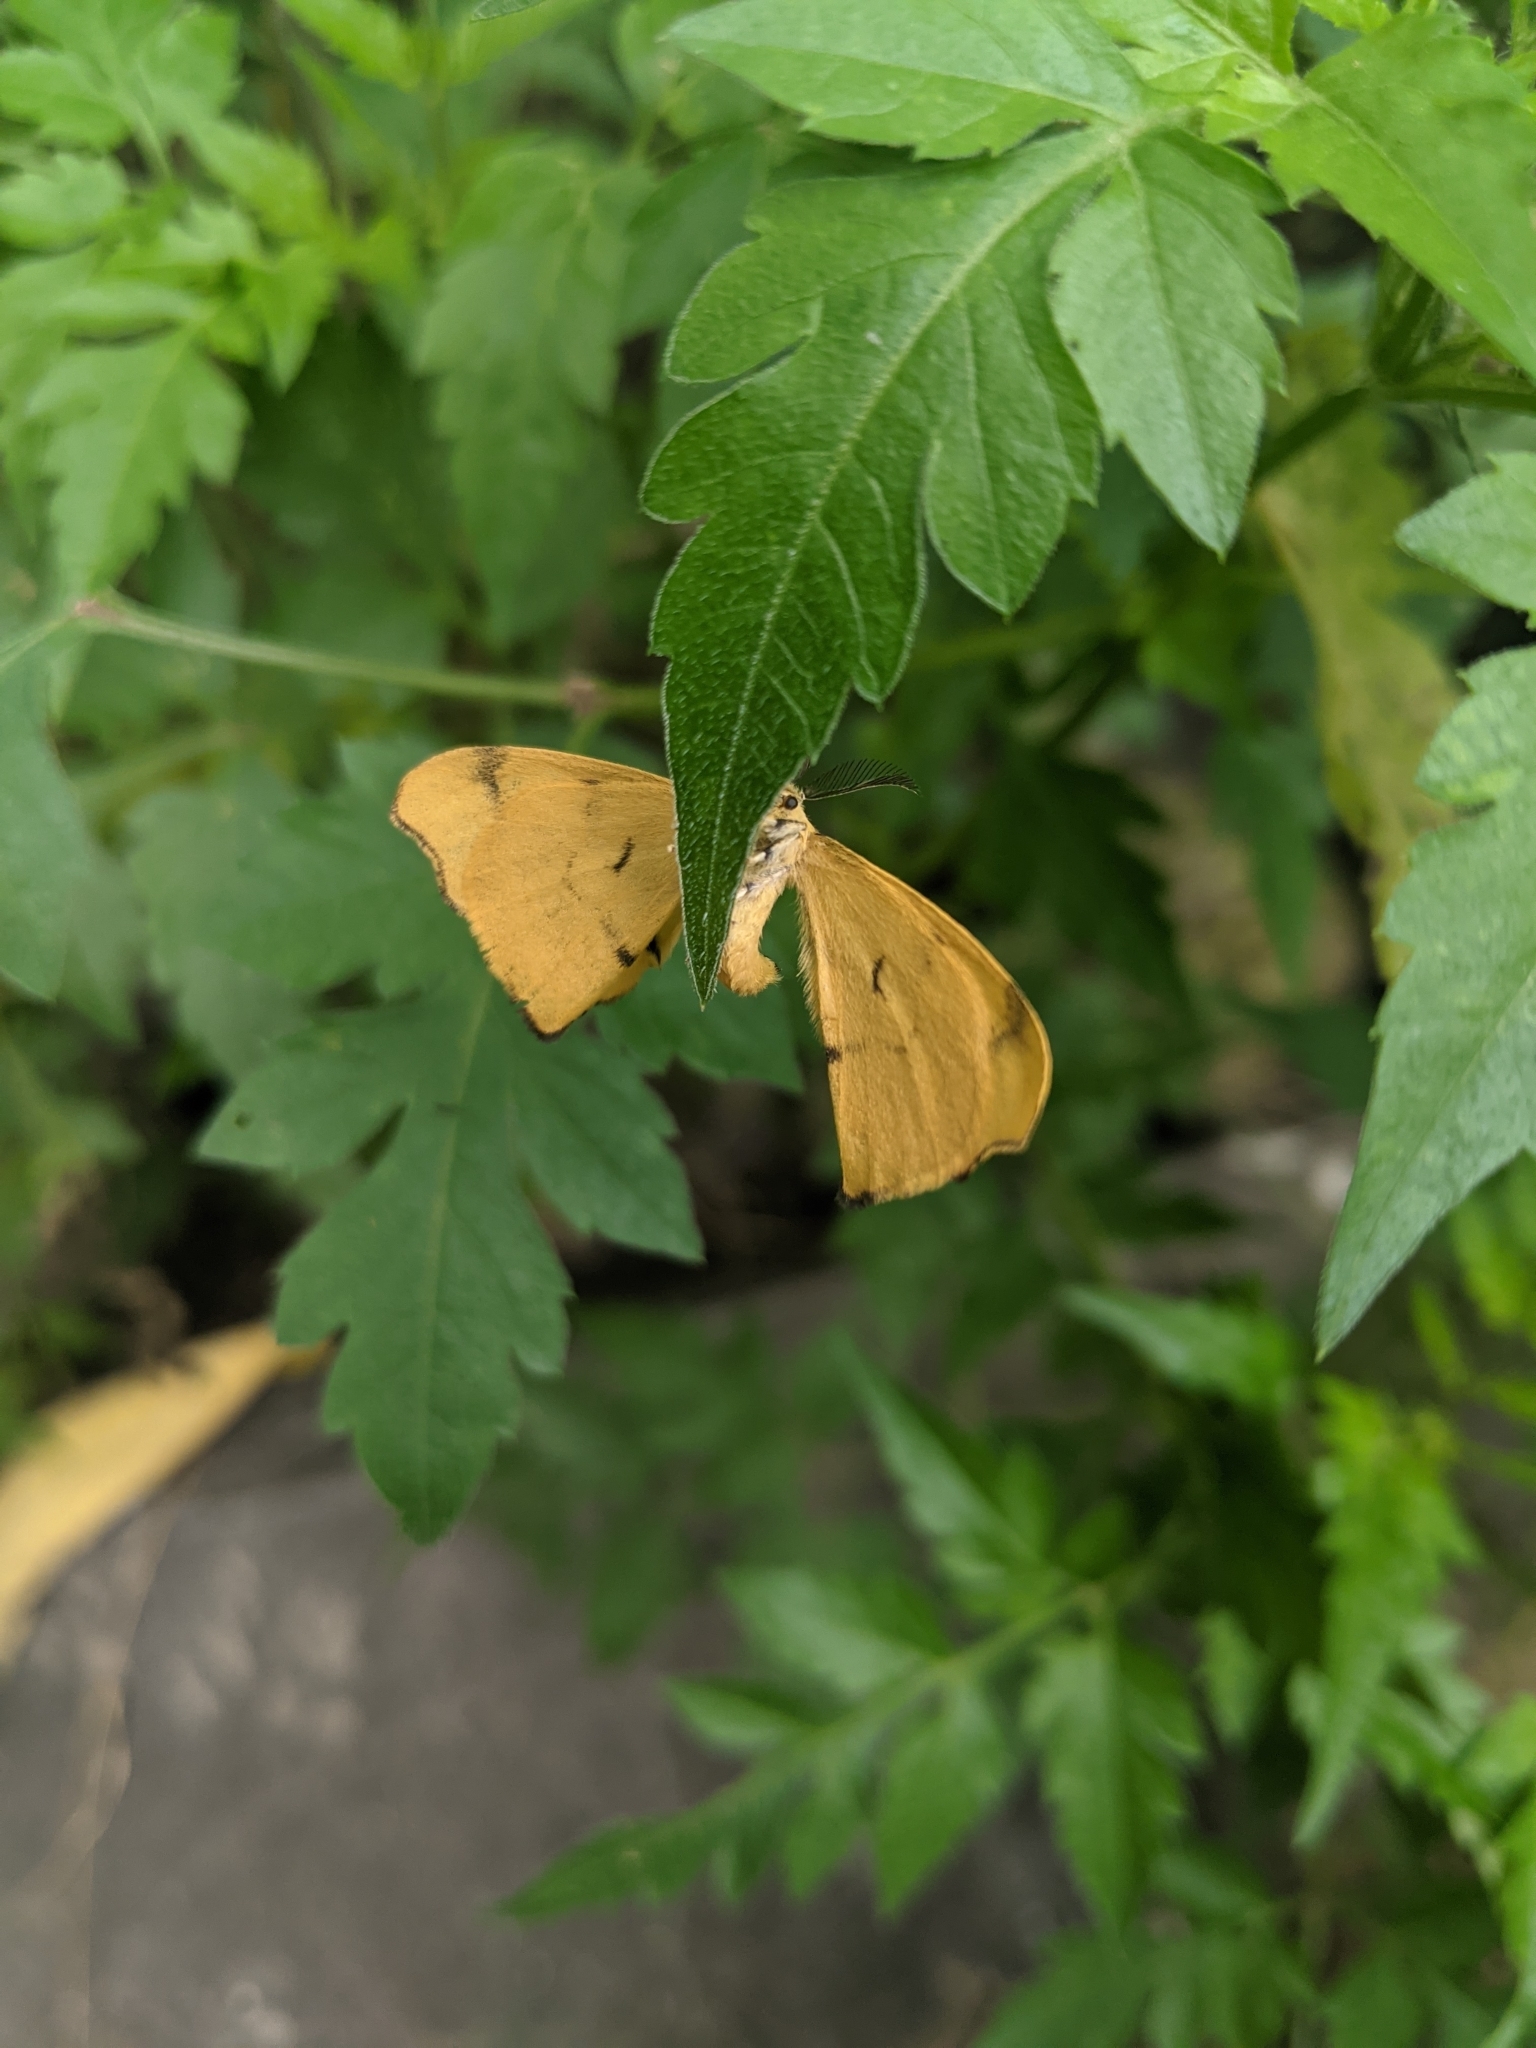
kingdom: Animalia
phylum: Arthropoda
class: Insecta
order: Lepidoptera
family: Bombycidae
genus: Rondotia
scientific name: Rondotia menciana
